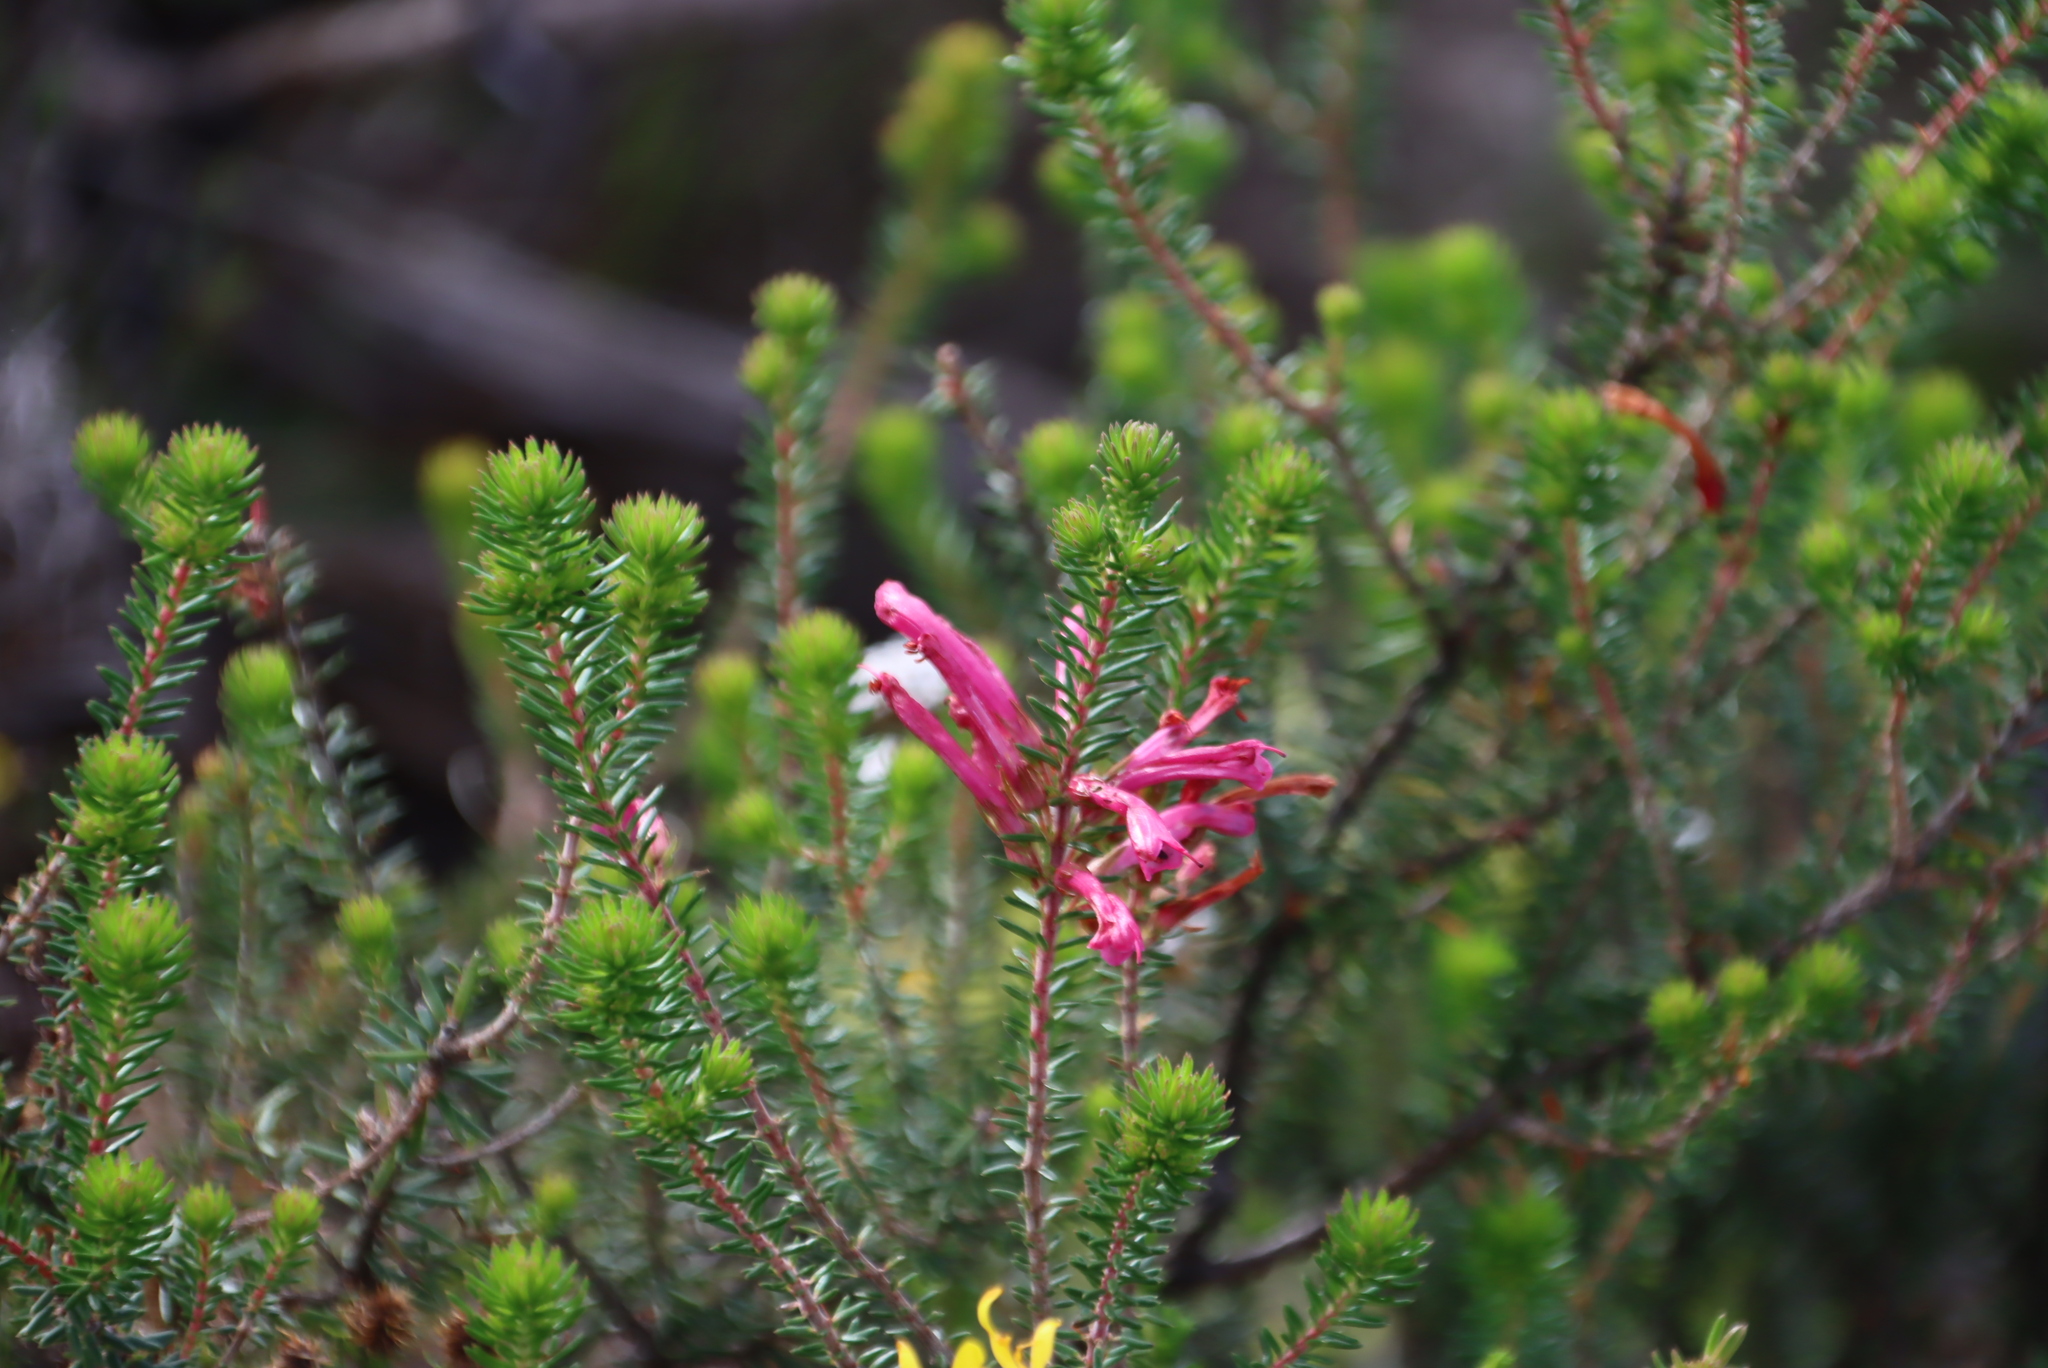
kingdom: Plantae
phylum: Tracheophyta
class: Magnoliopsida
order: Ericales
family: Ericaceae
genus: Erica
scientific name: Erica abietina
